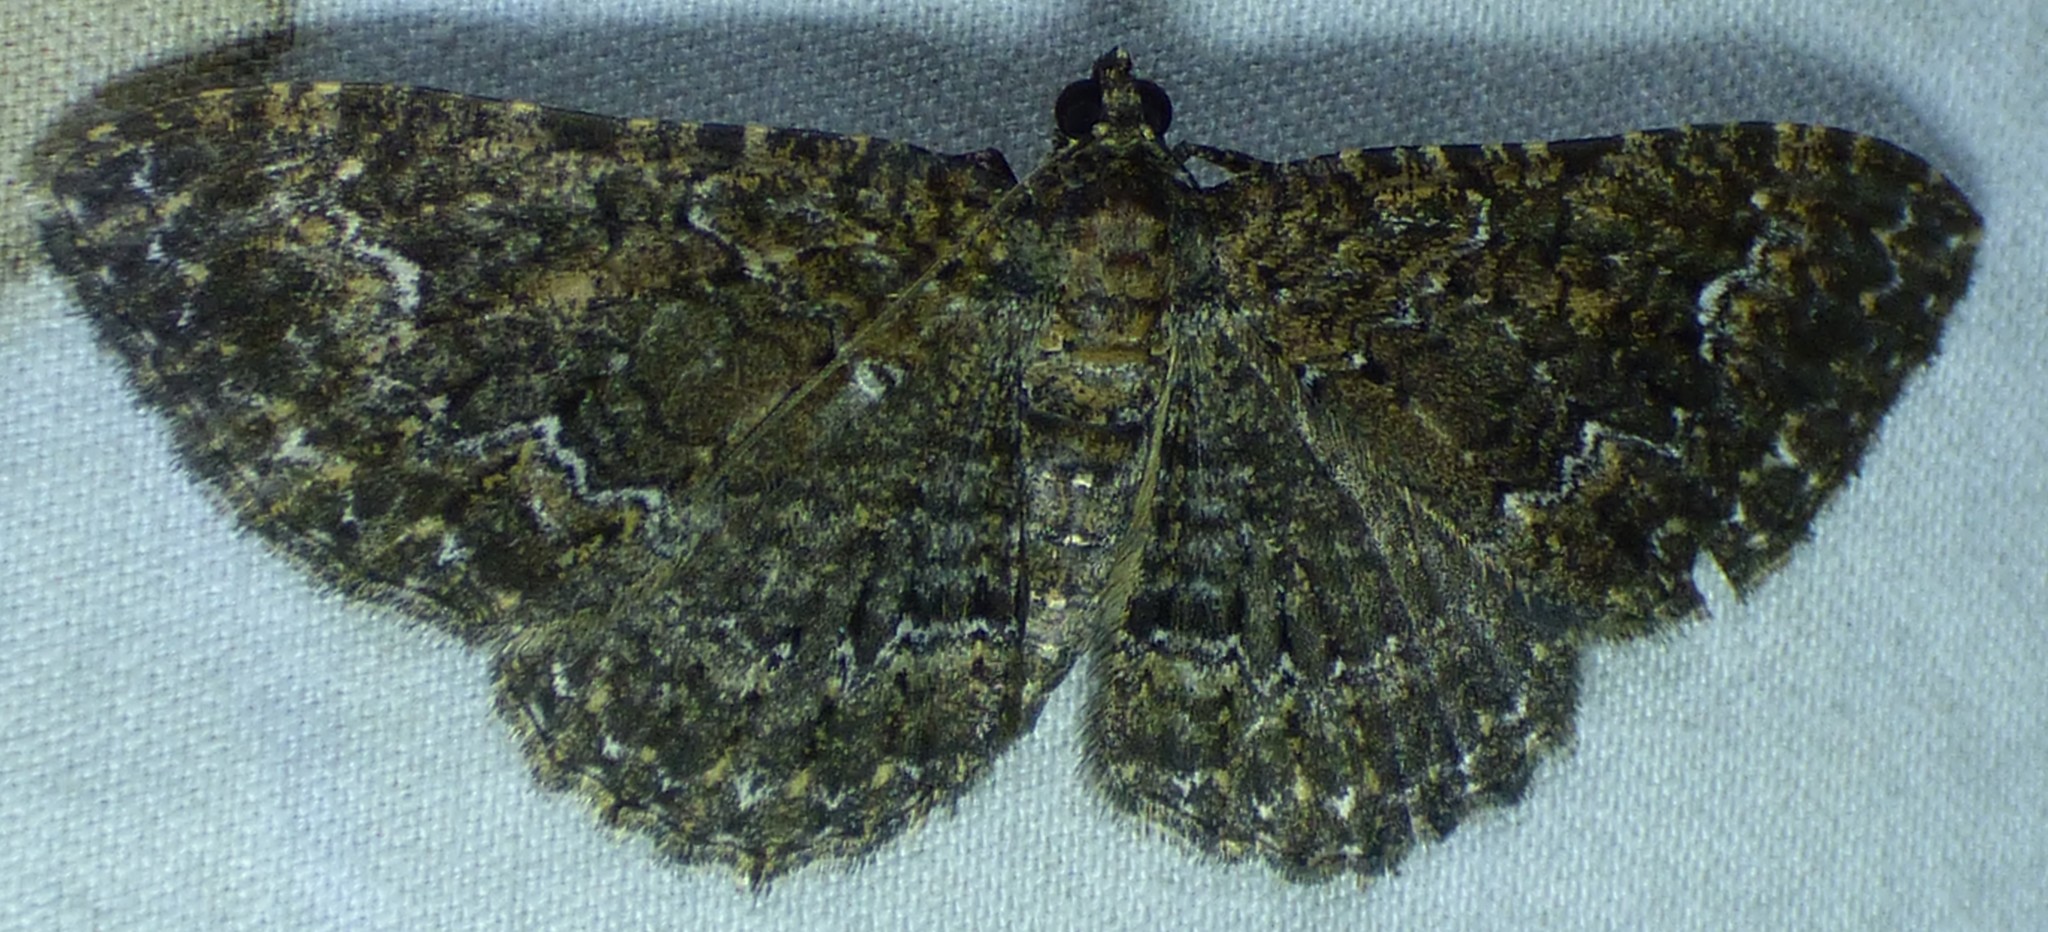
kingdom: Animalia
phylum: Arthropoda
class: Insecta
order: Lepidoptera
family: Geometridae
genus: Disclisioprocta
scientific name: Disclisioprocta stellata
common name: Somber carpet
